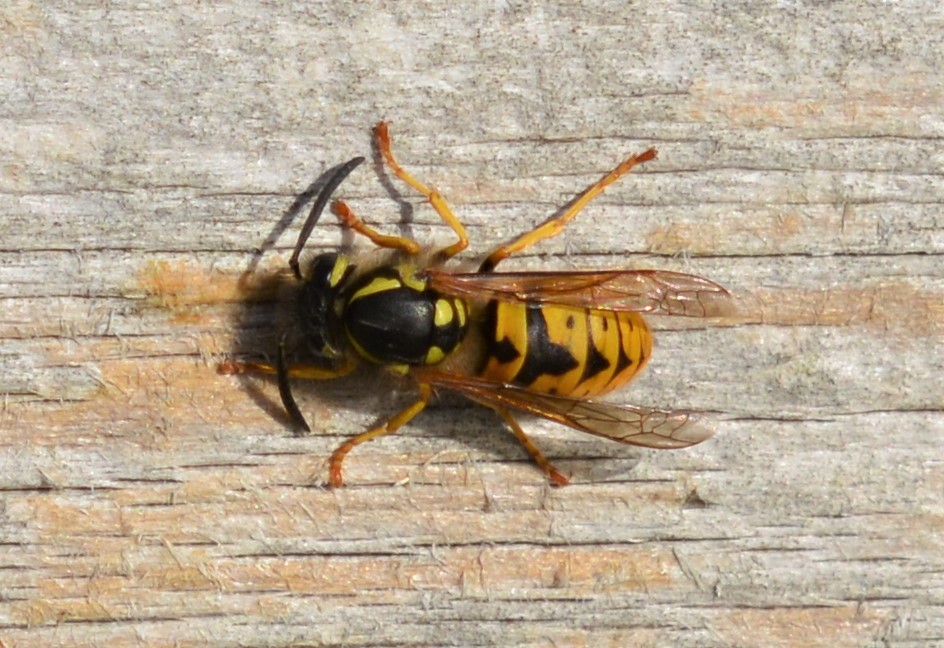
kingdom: Animalia
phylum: Arthropoda
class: Insecta
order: Hymenoptera
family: Vespidae
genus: Vespula
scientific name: Vespula germanica
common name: German wasp
